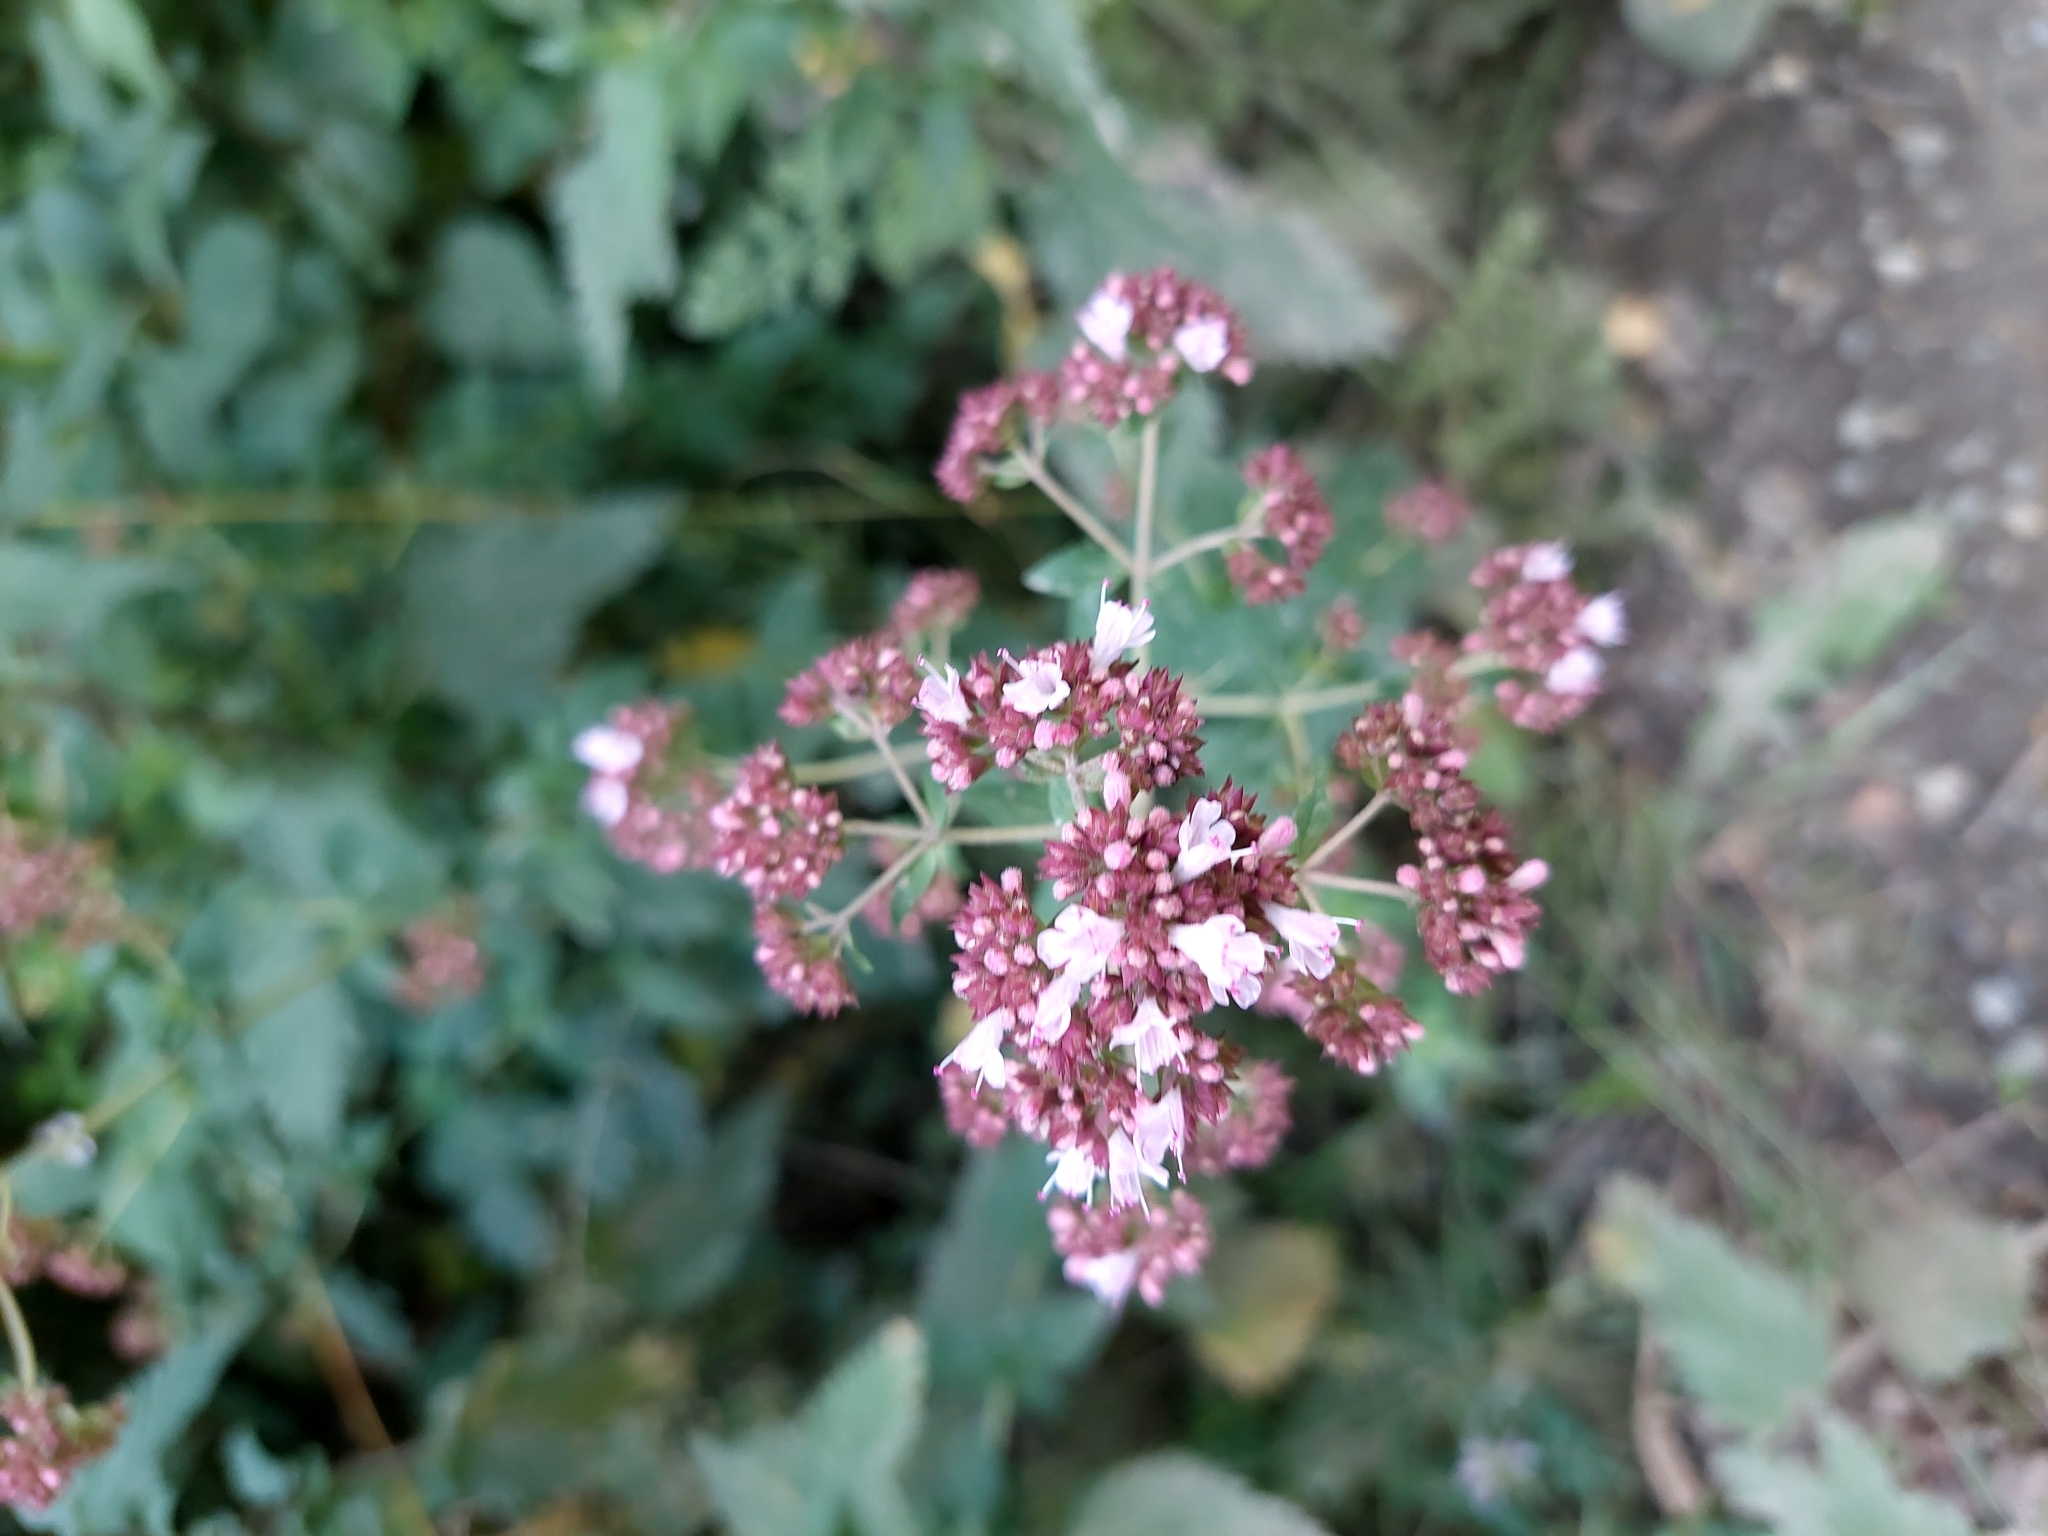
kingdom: Plantae
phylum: Tracheophyta
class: Magnoliopsida
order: Lamiales
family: Lamiaceae
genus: Origanum
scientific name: Origanum vulgare
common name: Wild marjoram
